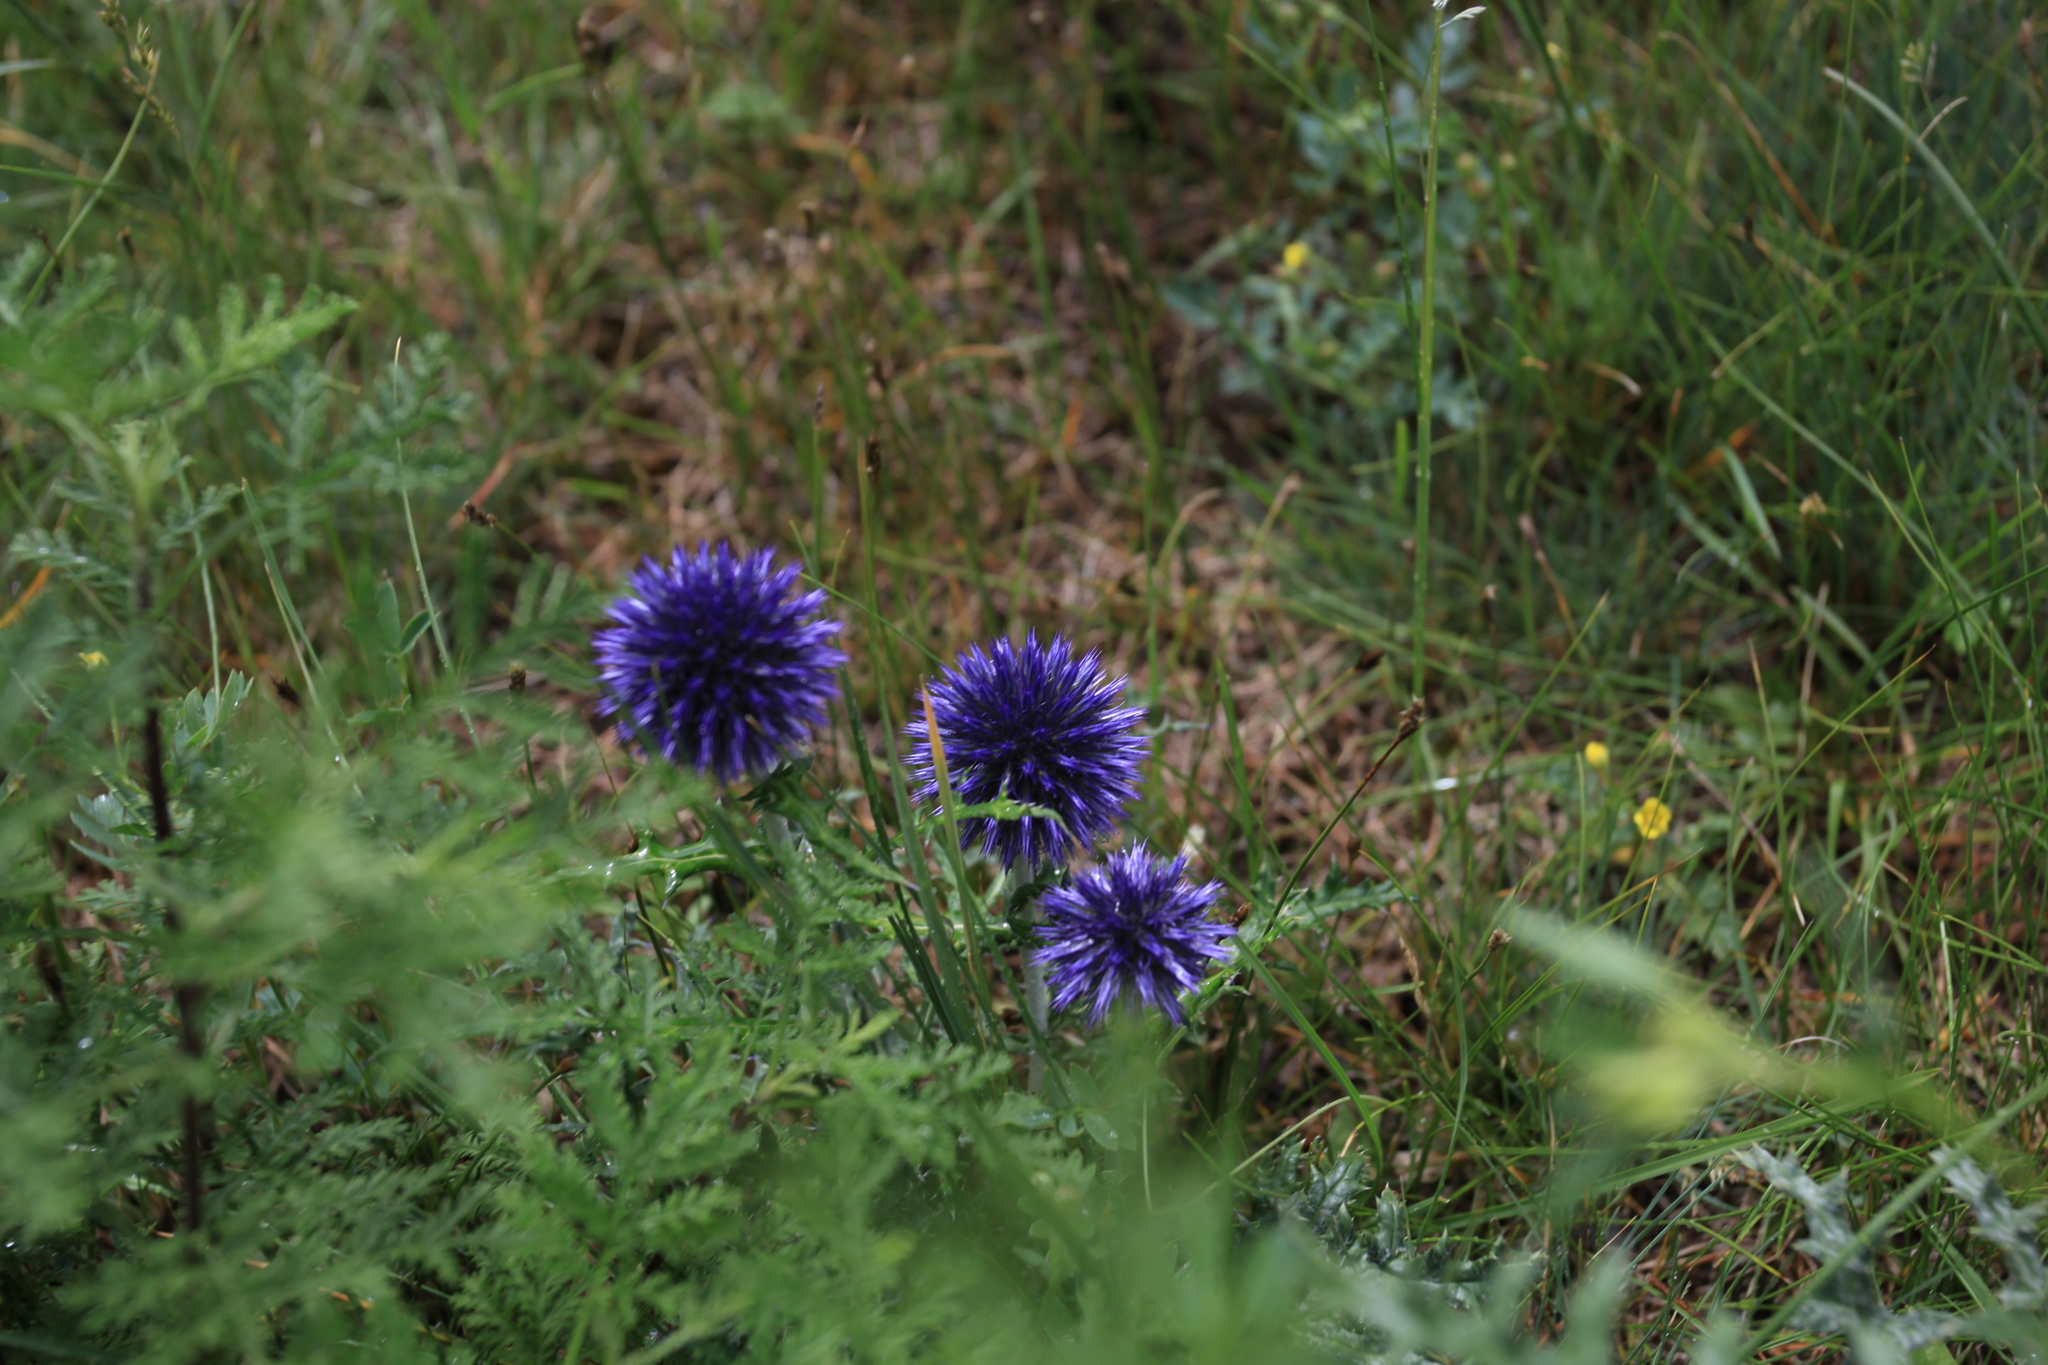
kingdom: Plantae
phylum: Tracheophyta
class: Magnoliopsida
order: Asterales
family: Asteraceae
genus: Echinops
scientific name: Echinops ritro
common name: Globe thistle
